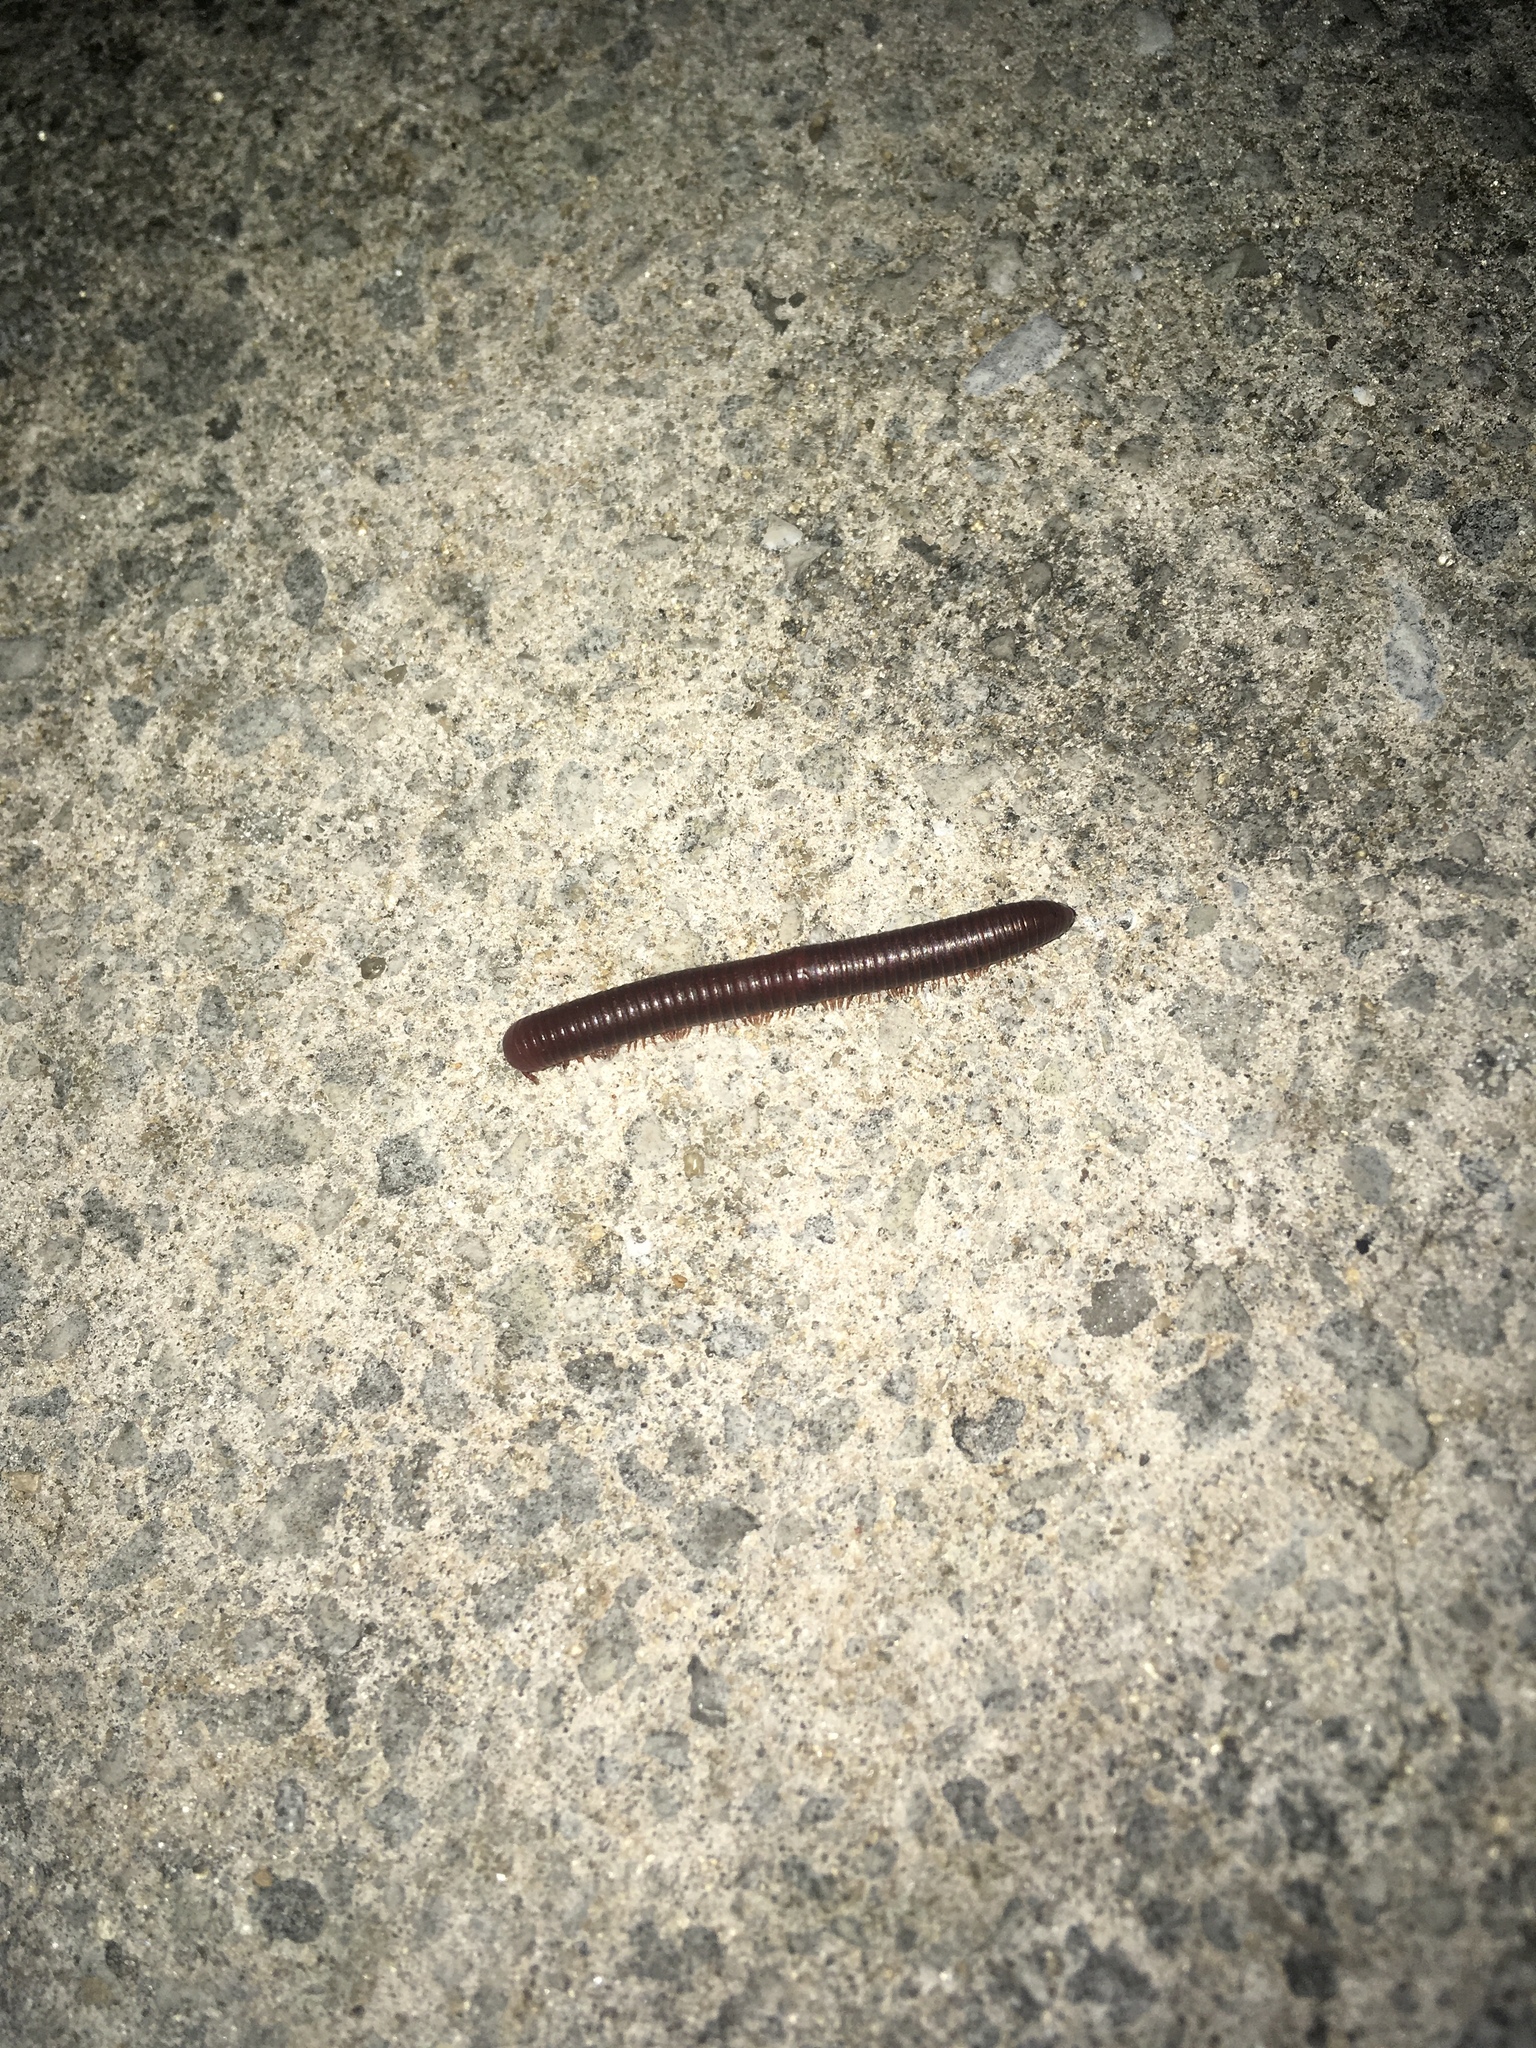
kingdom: Animalia
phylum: Arthropoda
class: Diplopoda
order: Spirobolida
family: Pachybolidae
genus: Trigoniulus
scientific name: Trigoniulus corallinus
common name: Millipede
